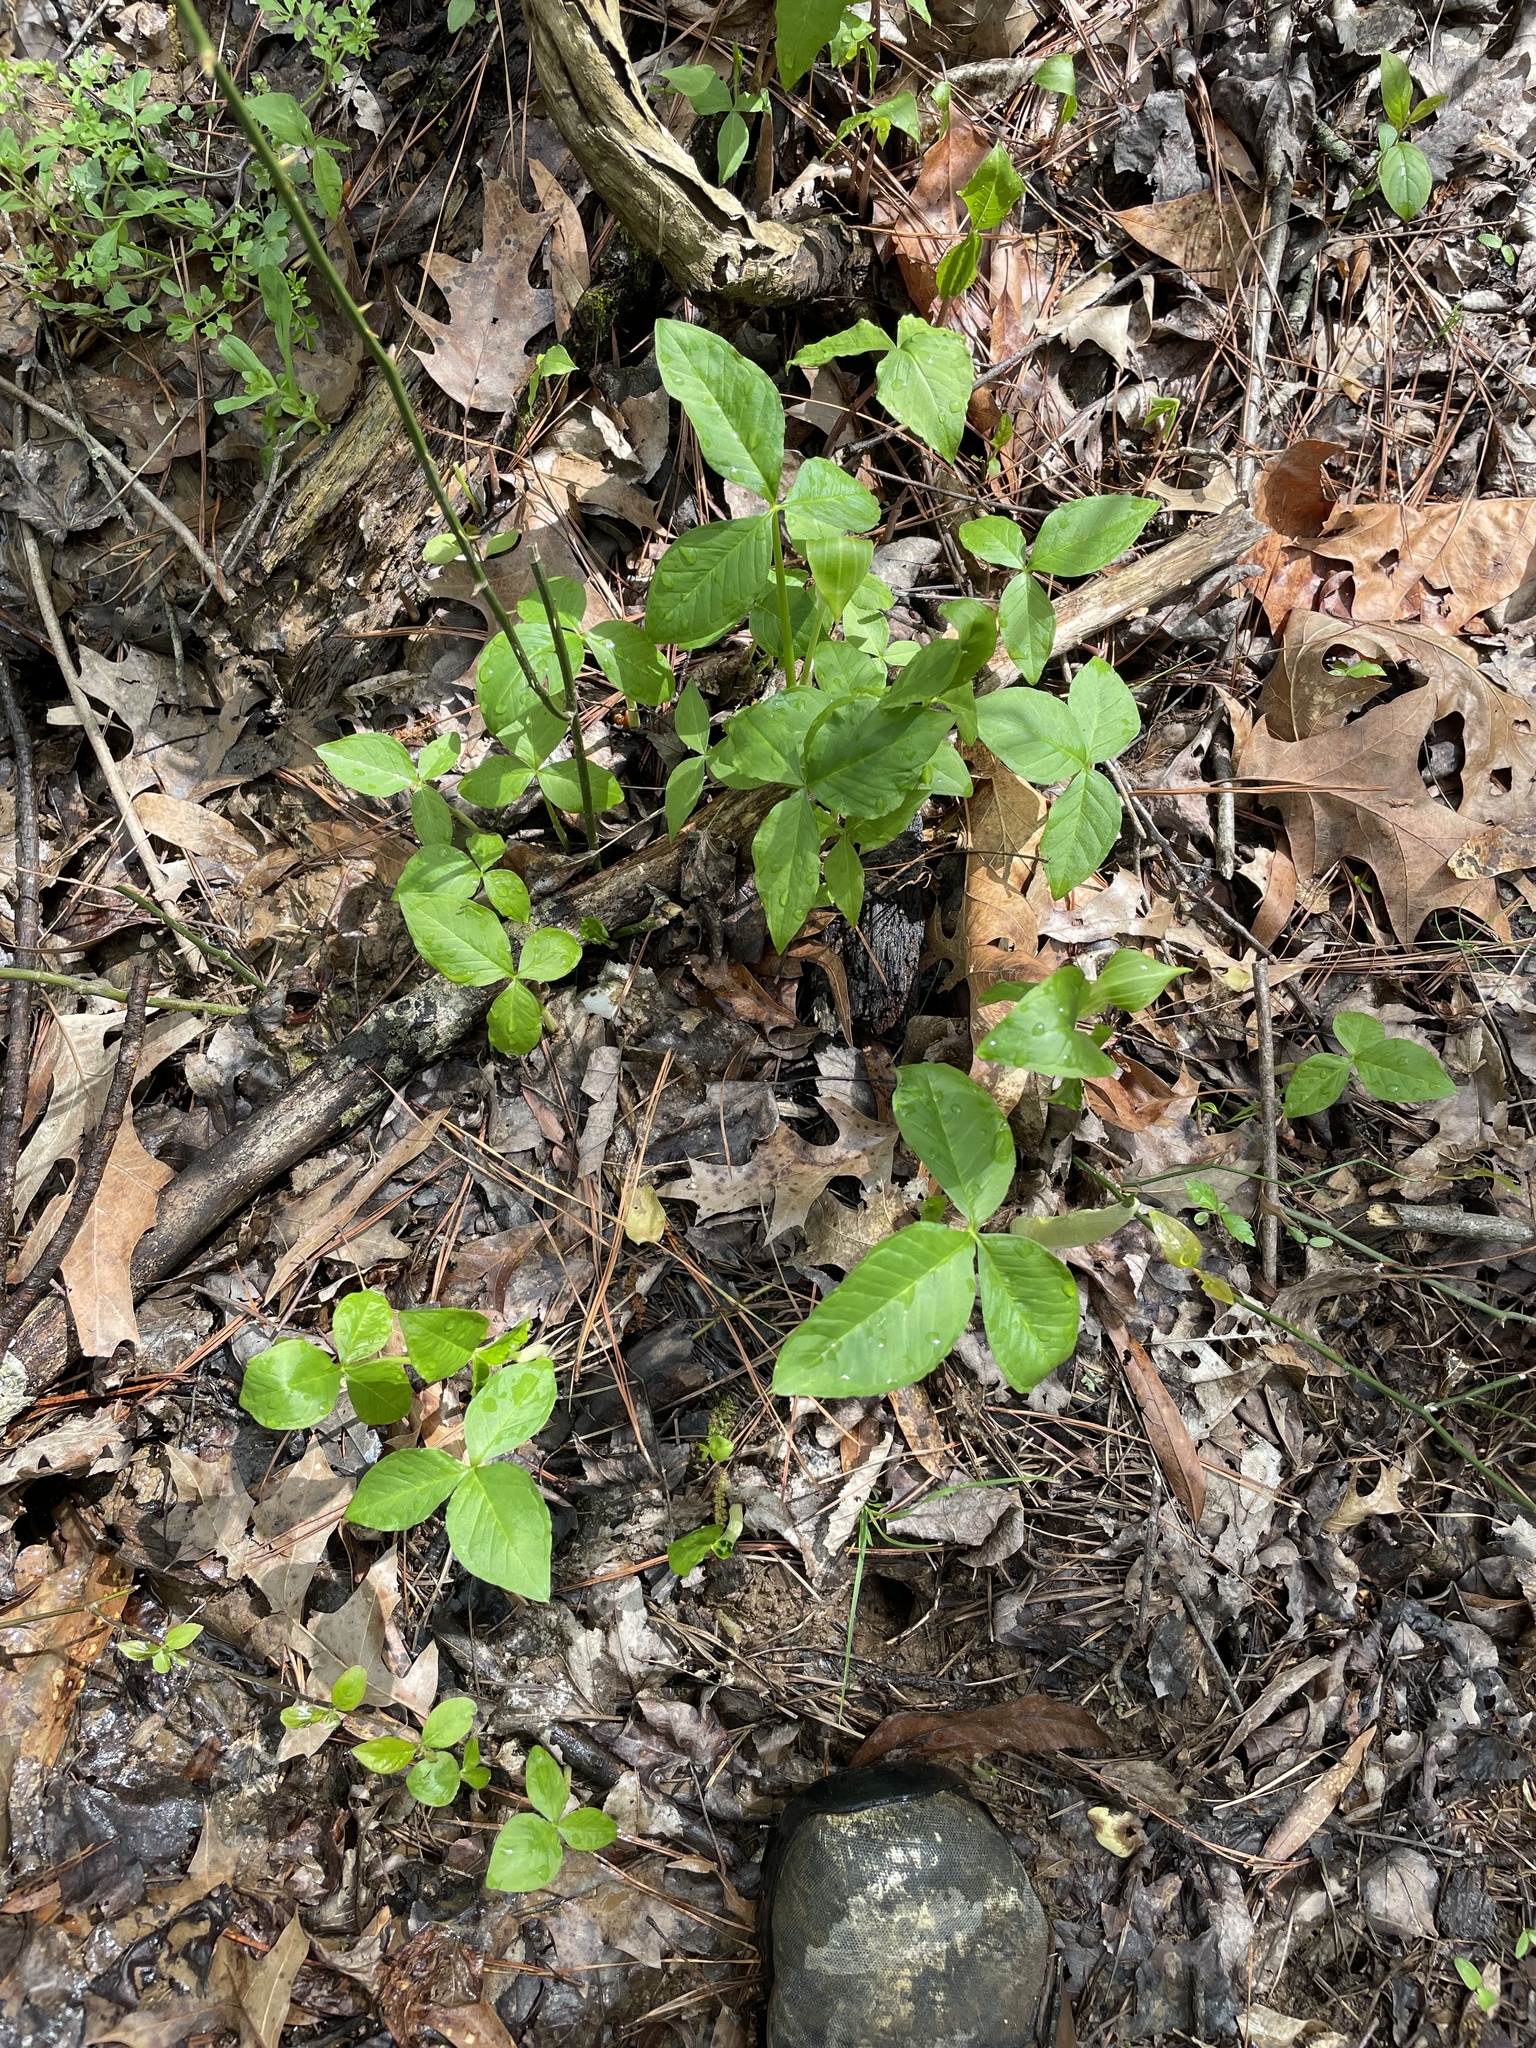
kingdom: Plantae
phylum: Tracheophyta
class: Liliopsida
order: Alismatales
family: Araceae
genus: Arisaema
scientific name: Arisaema pusillum
